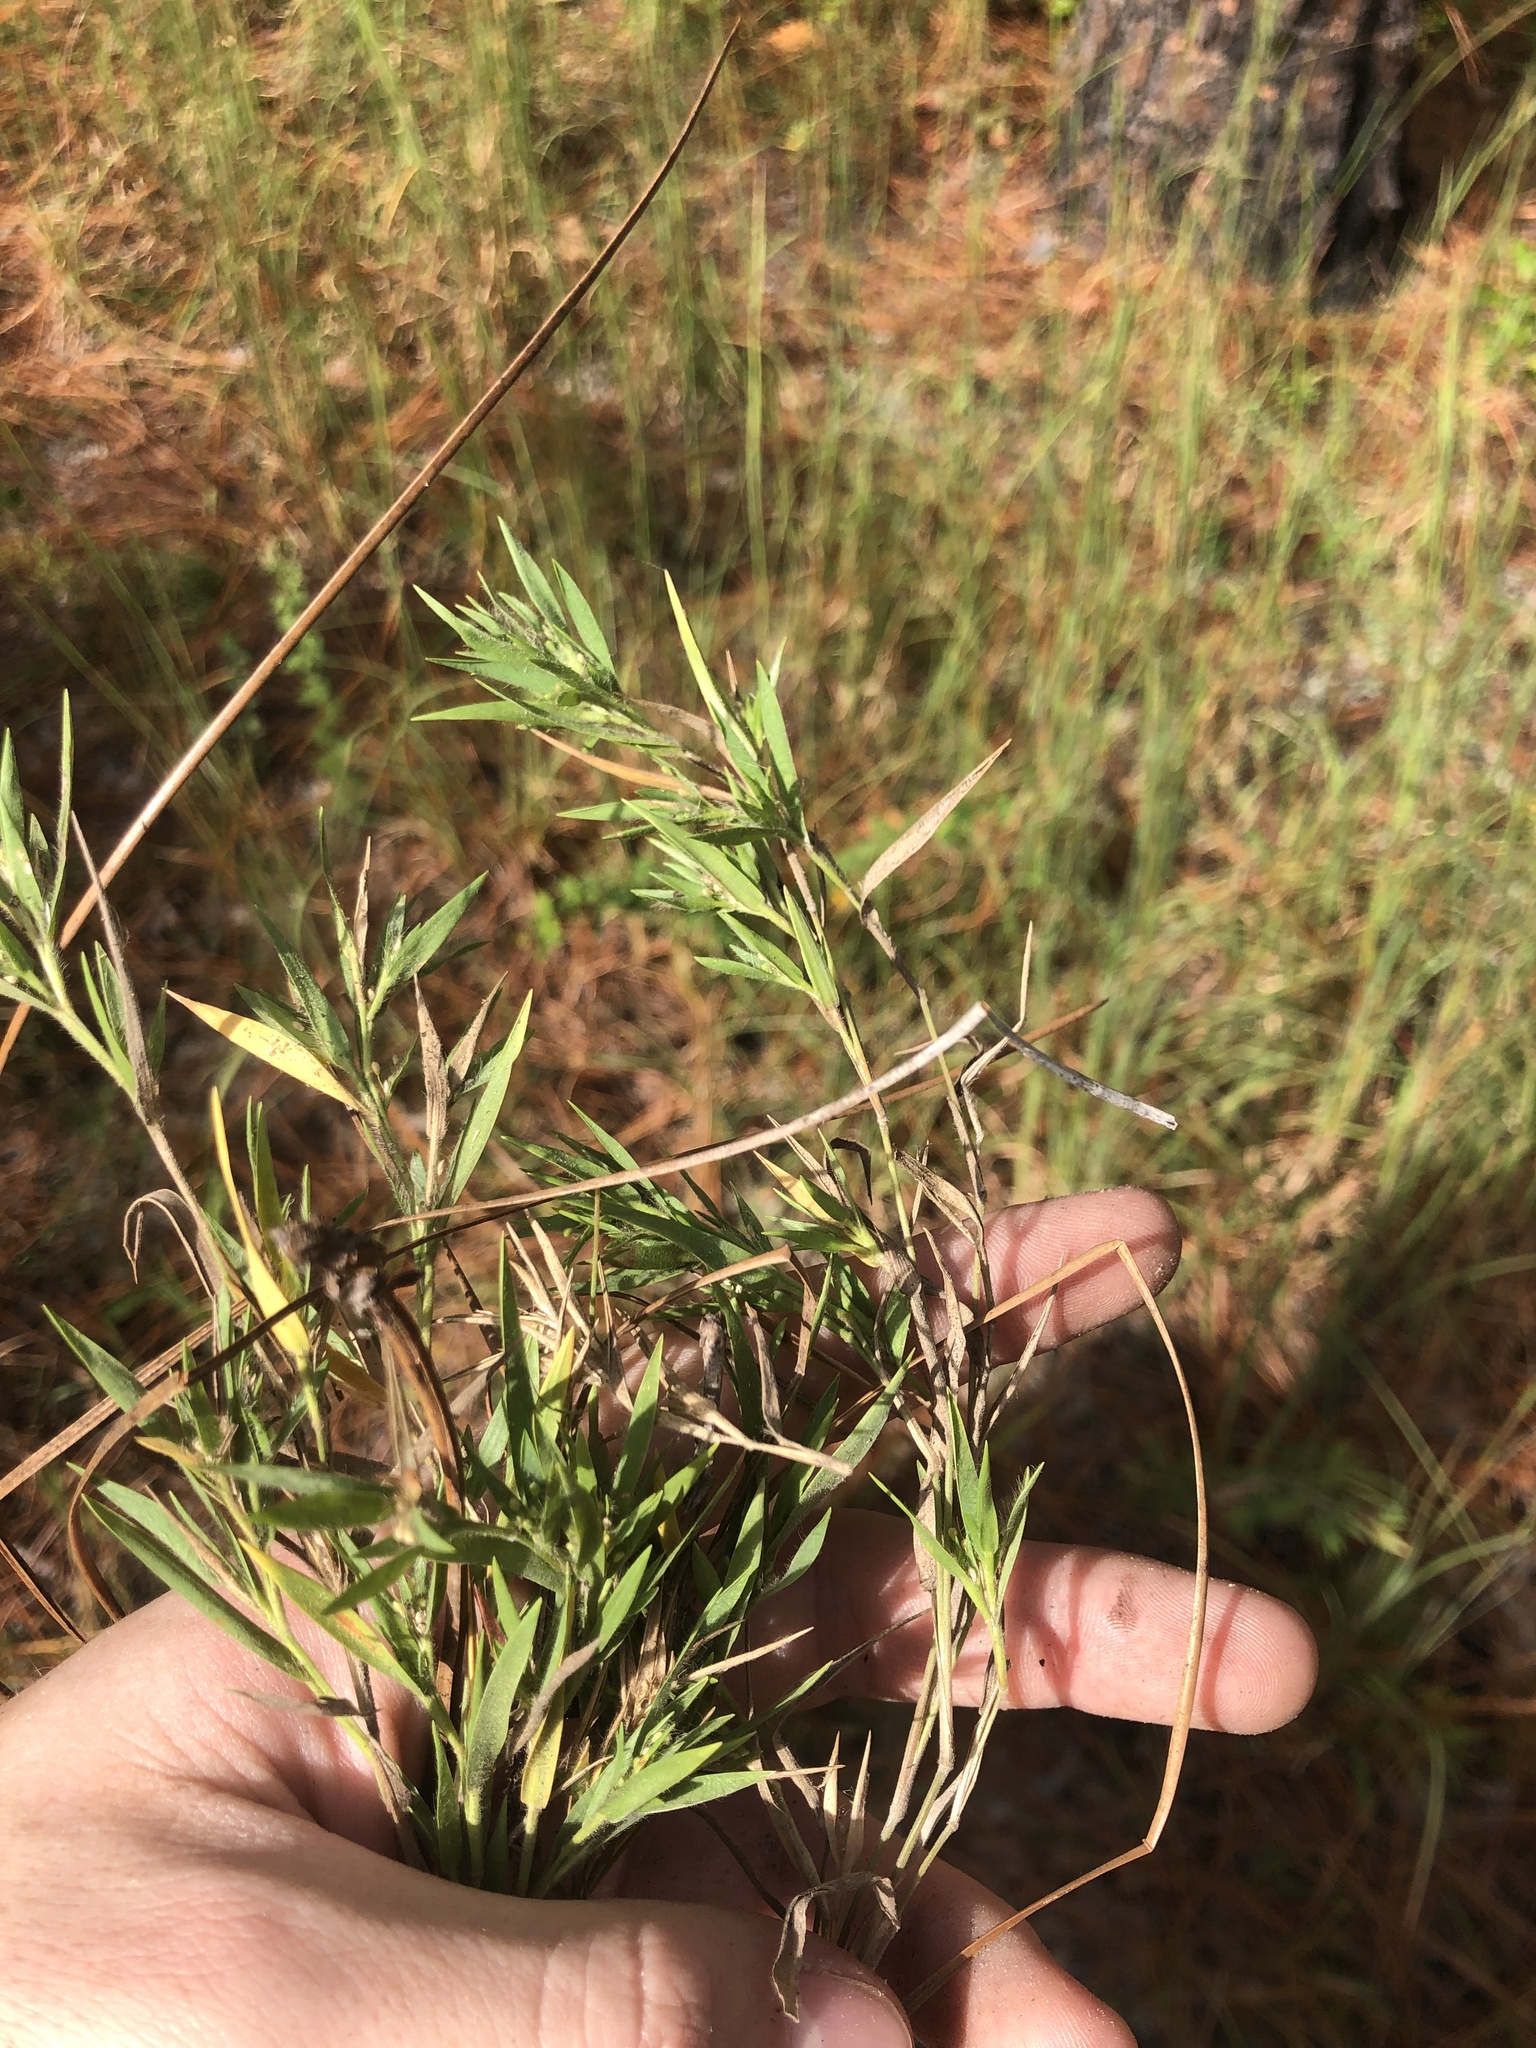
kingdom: Plantae
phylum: Tracheophyta
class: Liliopsida
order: Poales
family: Poaceae
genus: Dichanthelium
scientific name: Dichanthelium meridionale
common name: Mat panicgrass
